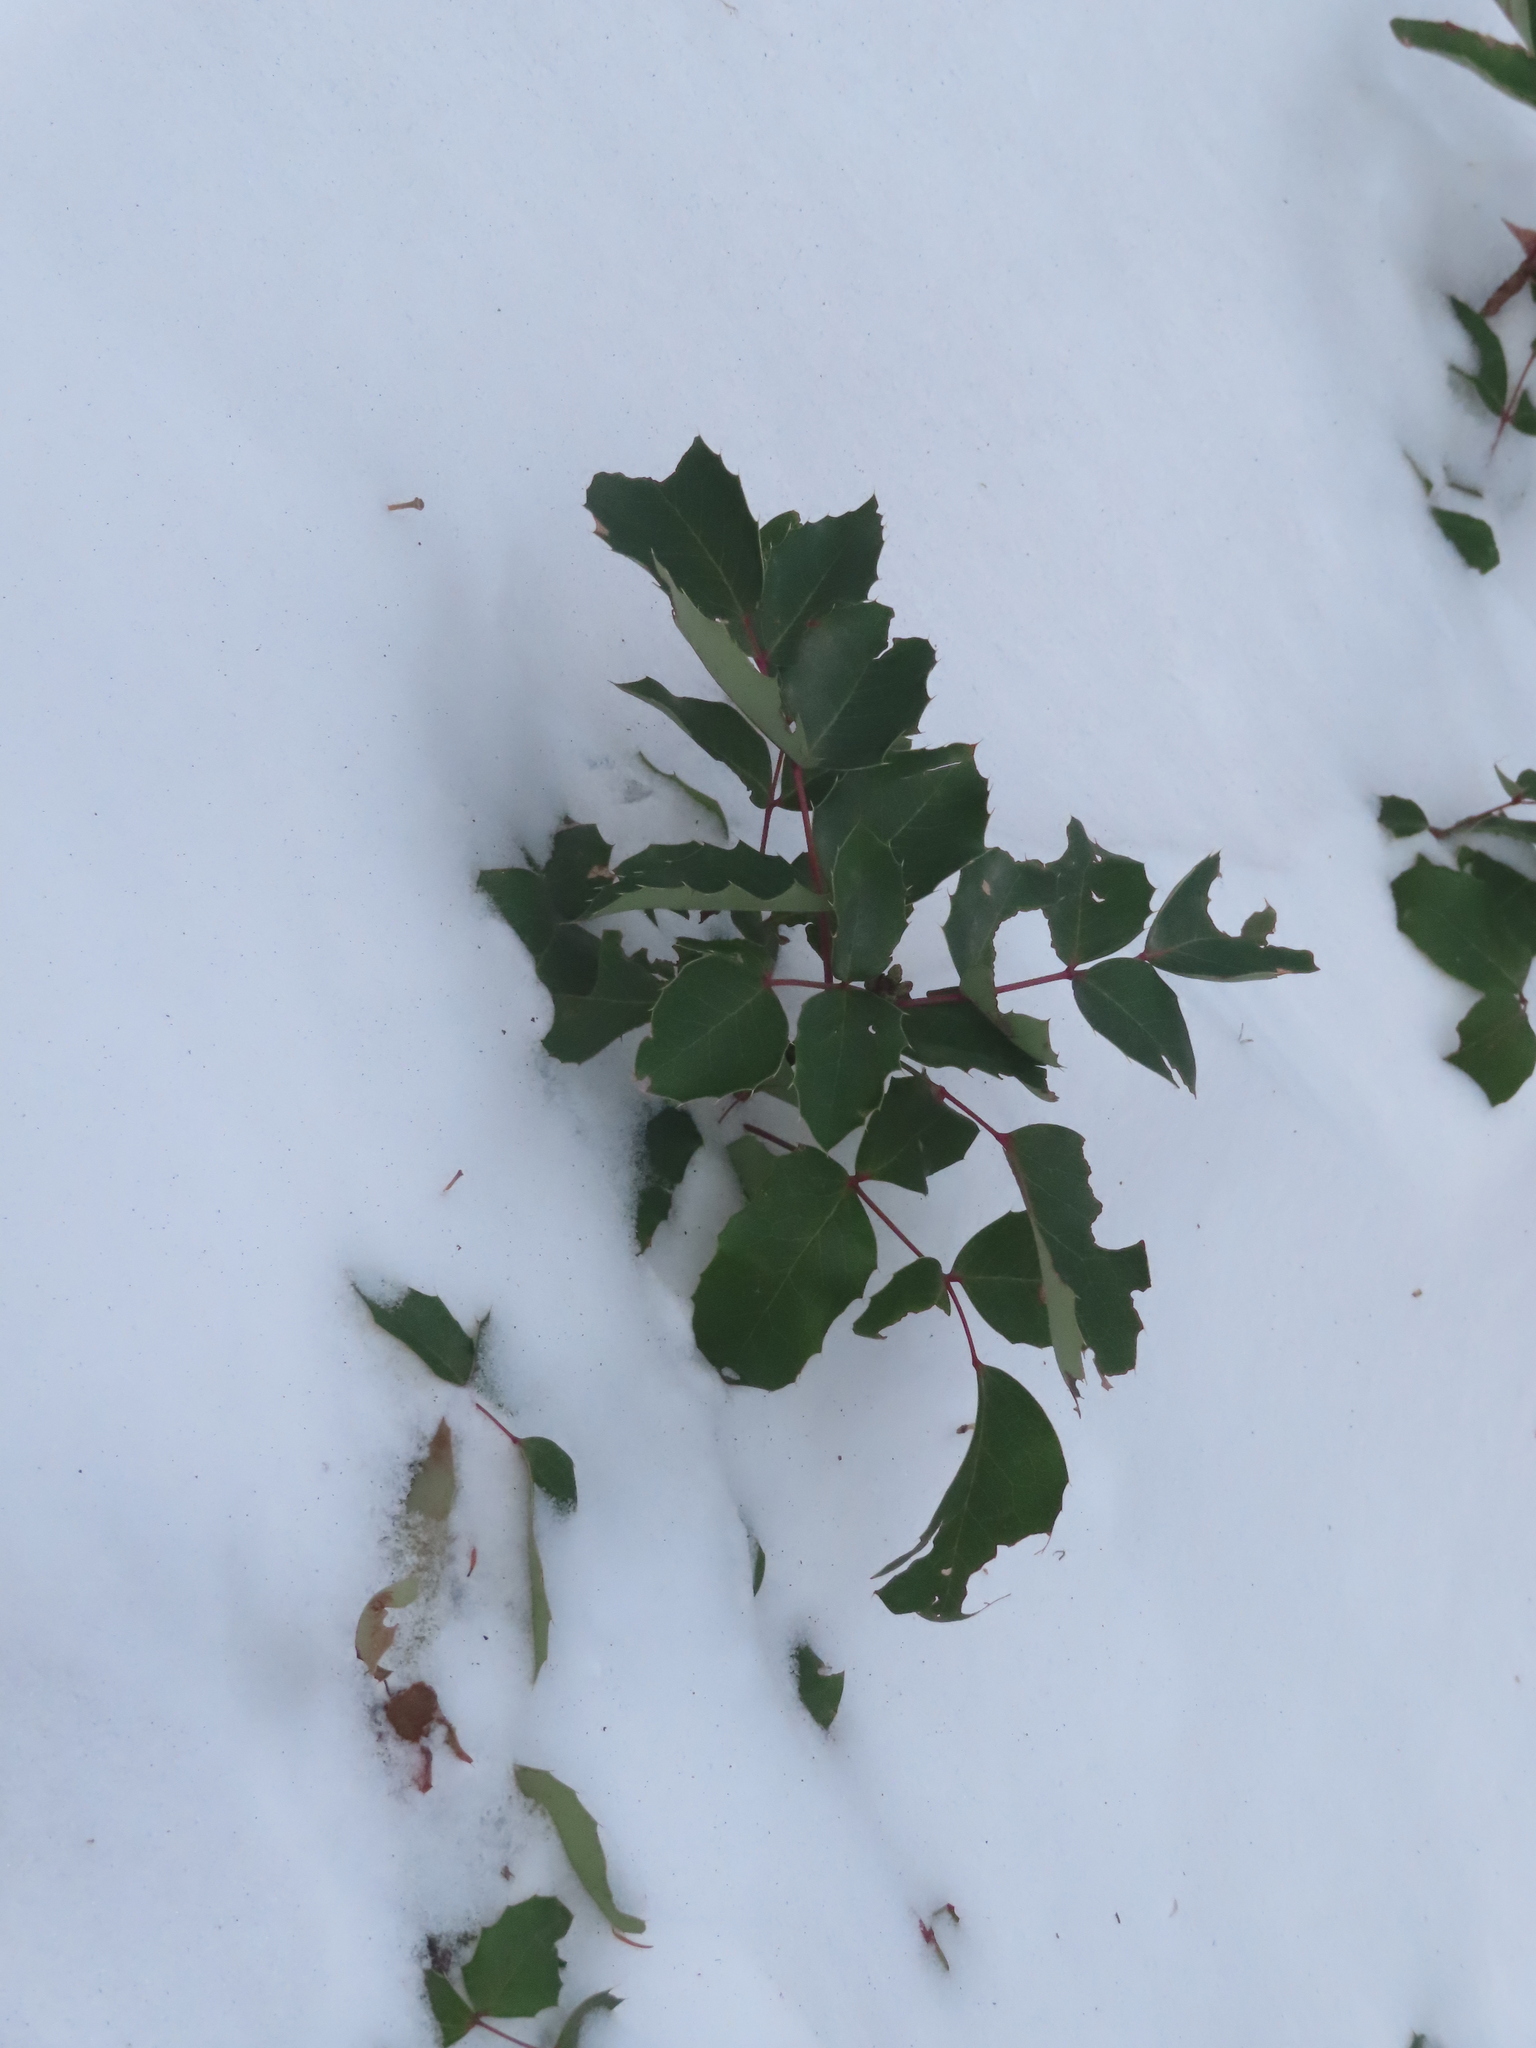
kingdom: Plantae
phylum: Tracheophyta
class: Magnoliopsida
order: Ranunculales
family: Berberidaceae
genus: Mahonia
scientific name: Mahonia repens
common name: Creeping oregon-grape
